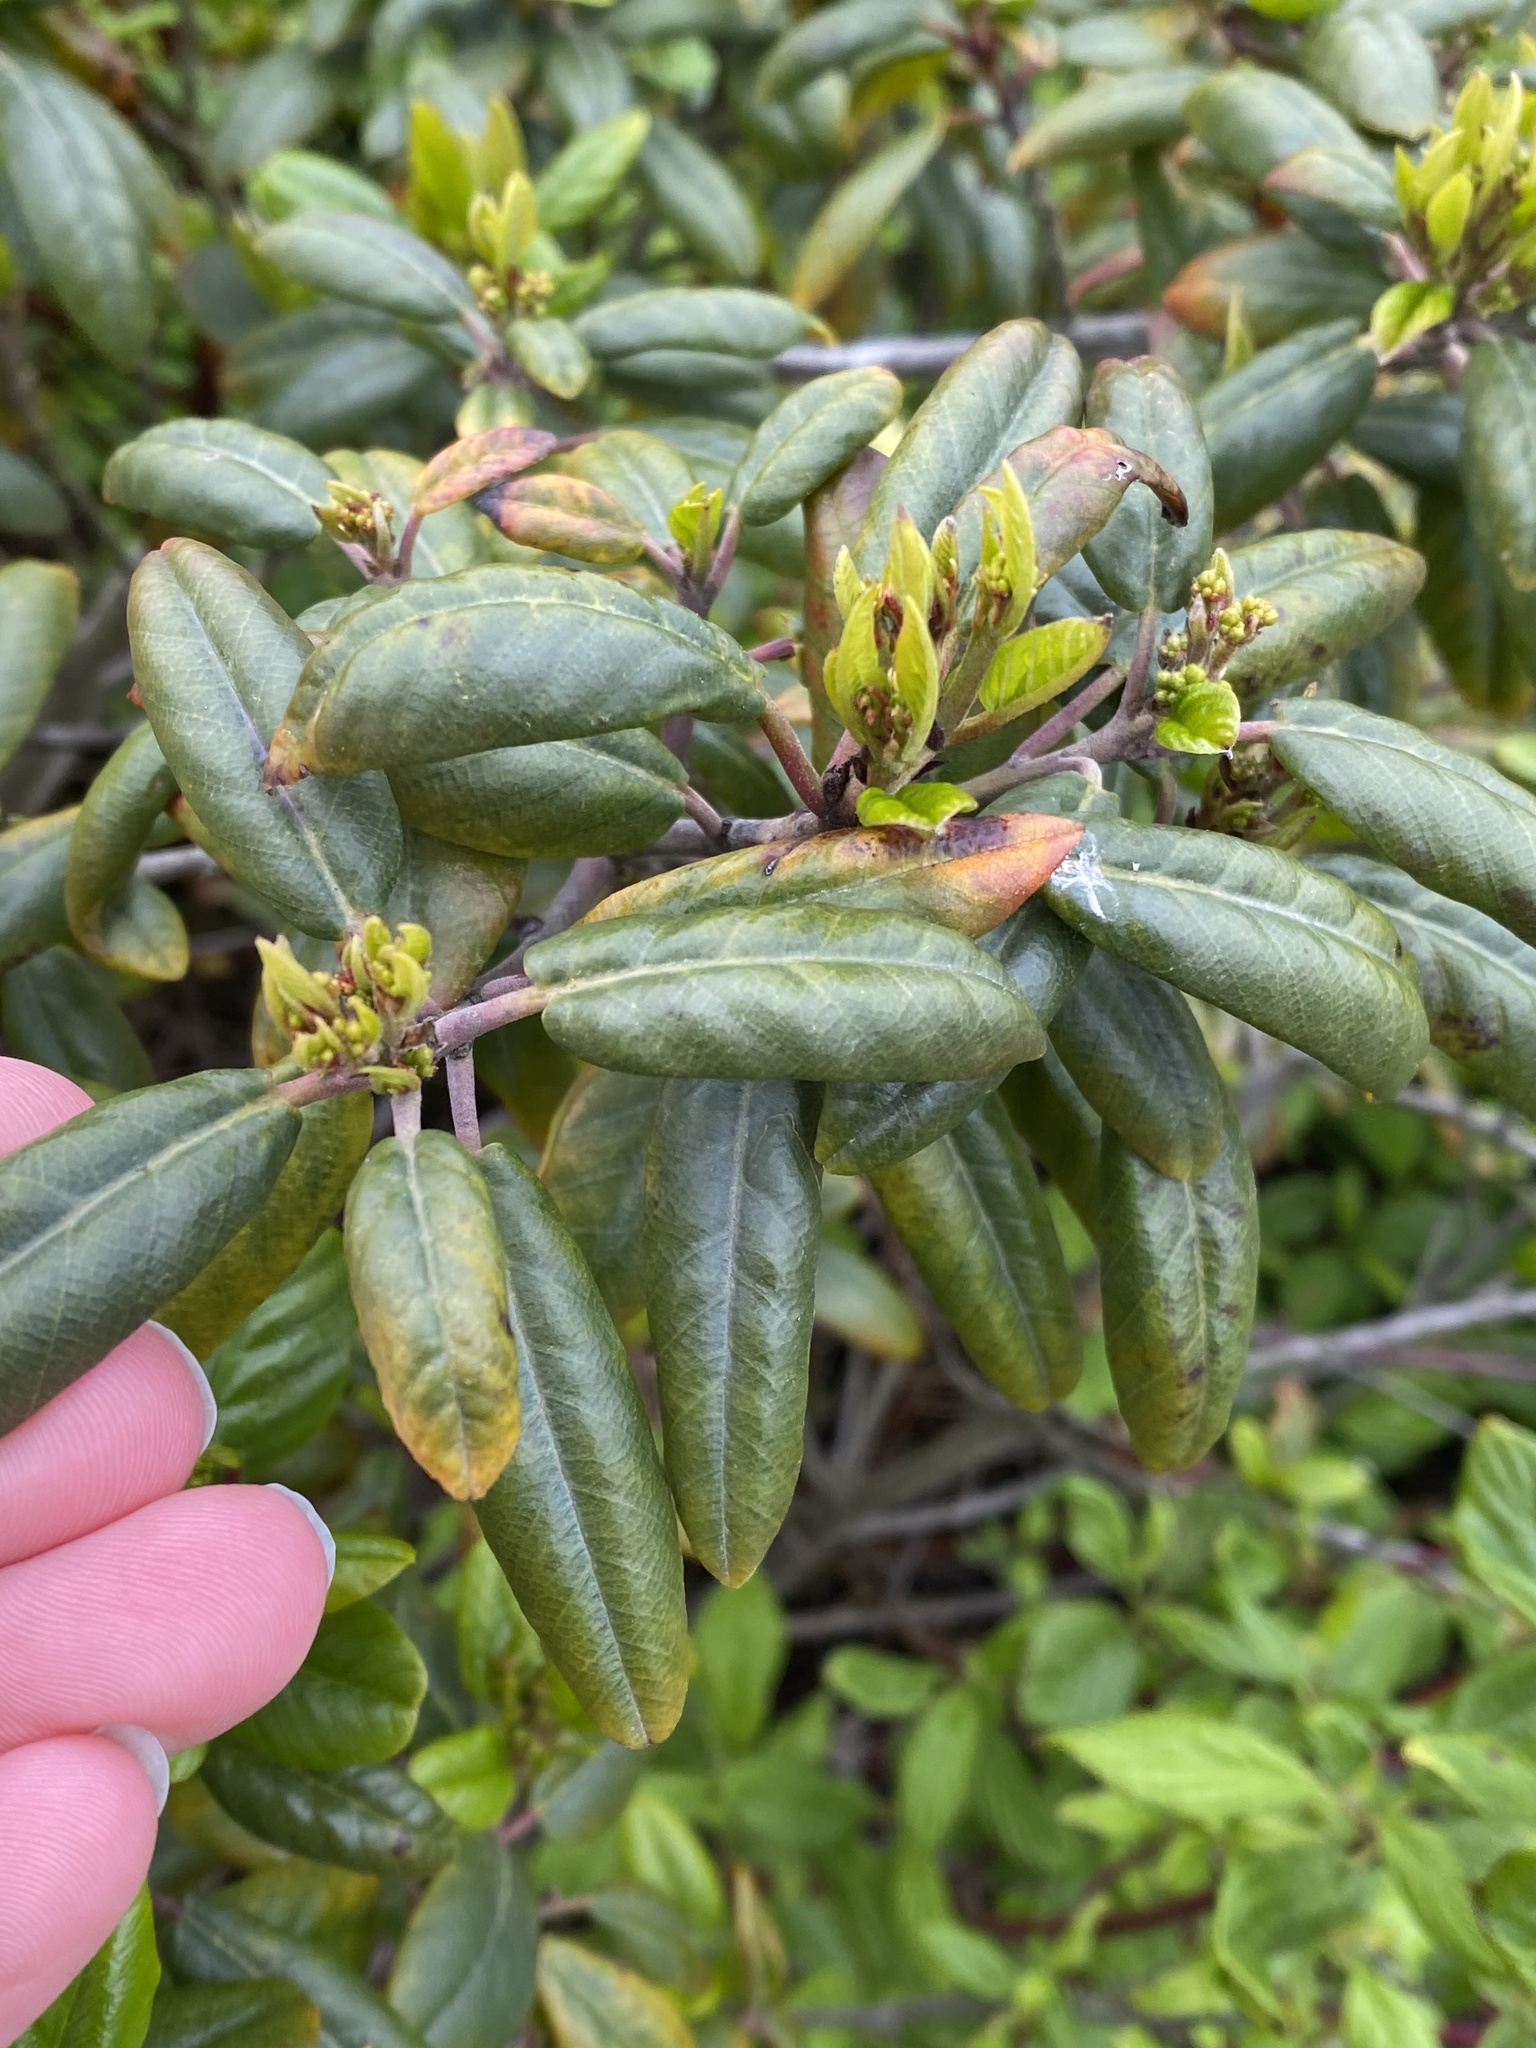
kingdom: Plantae
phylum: Tracheophyta
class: Magnoliopsida
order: Rosales
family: Rhamnaceae
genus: Frangula
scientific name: Frangula californica
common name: California buckthorn
